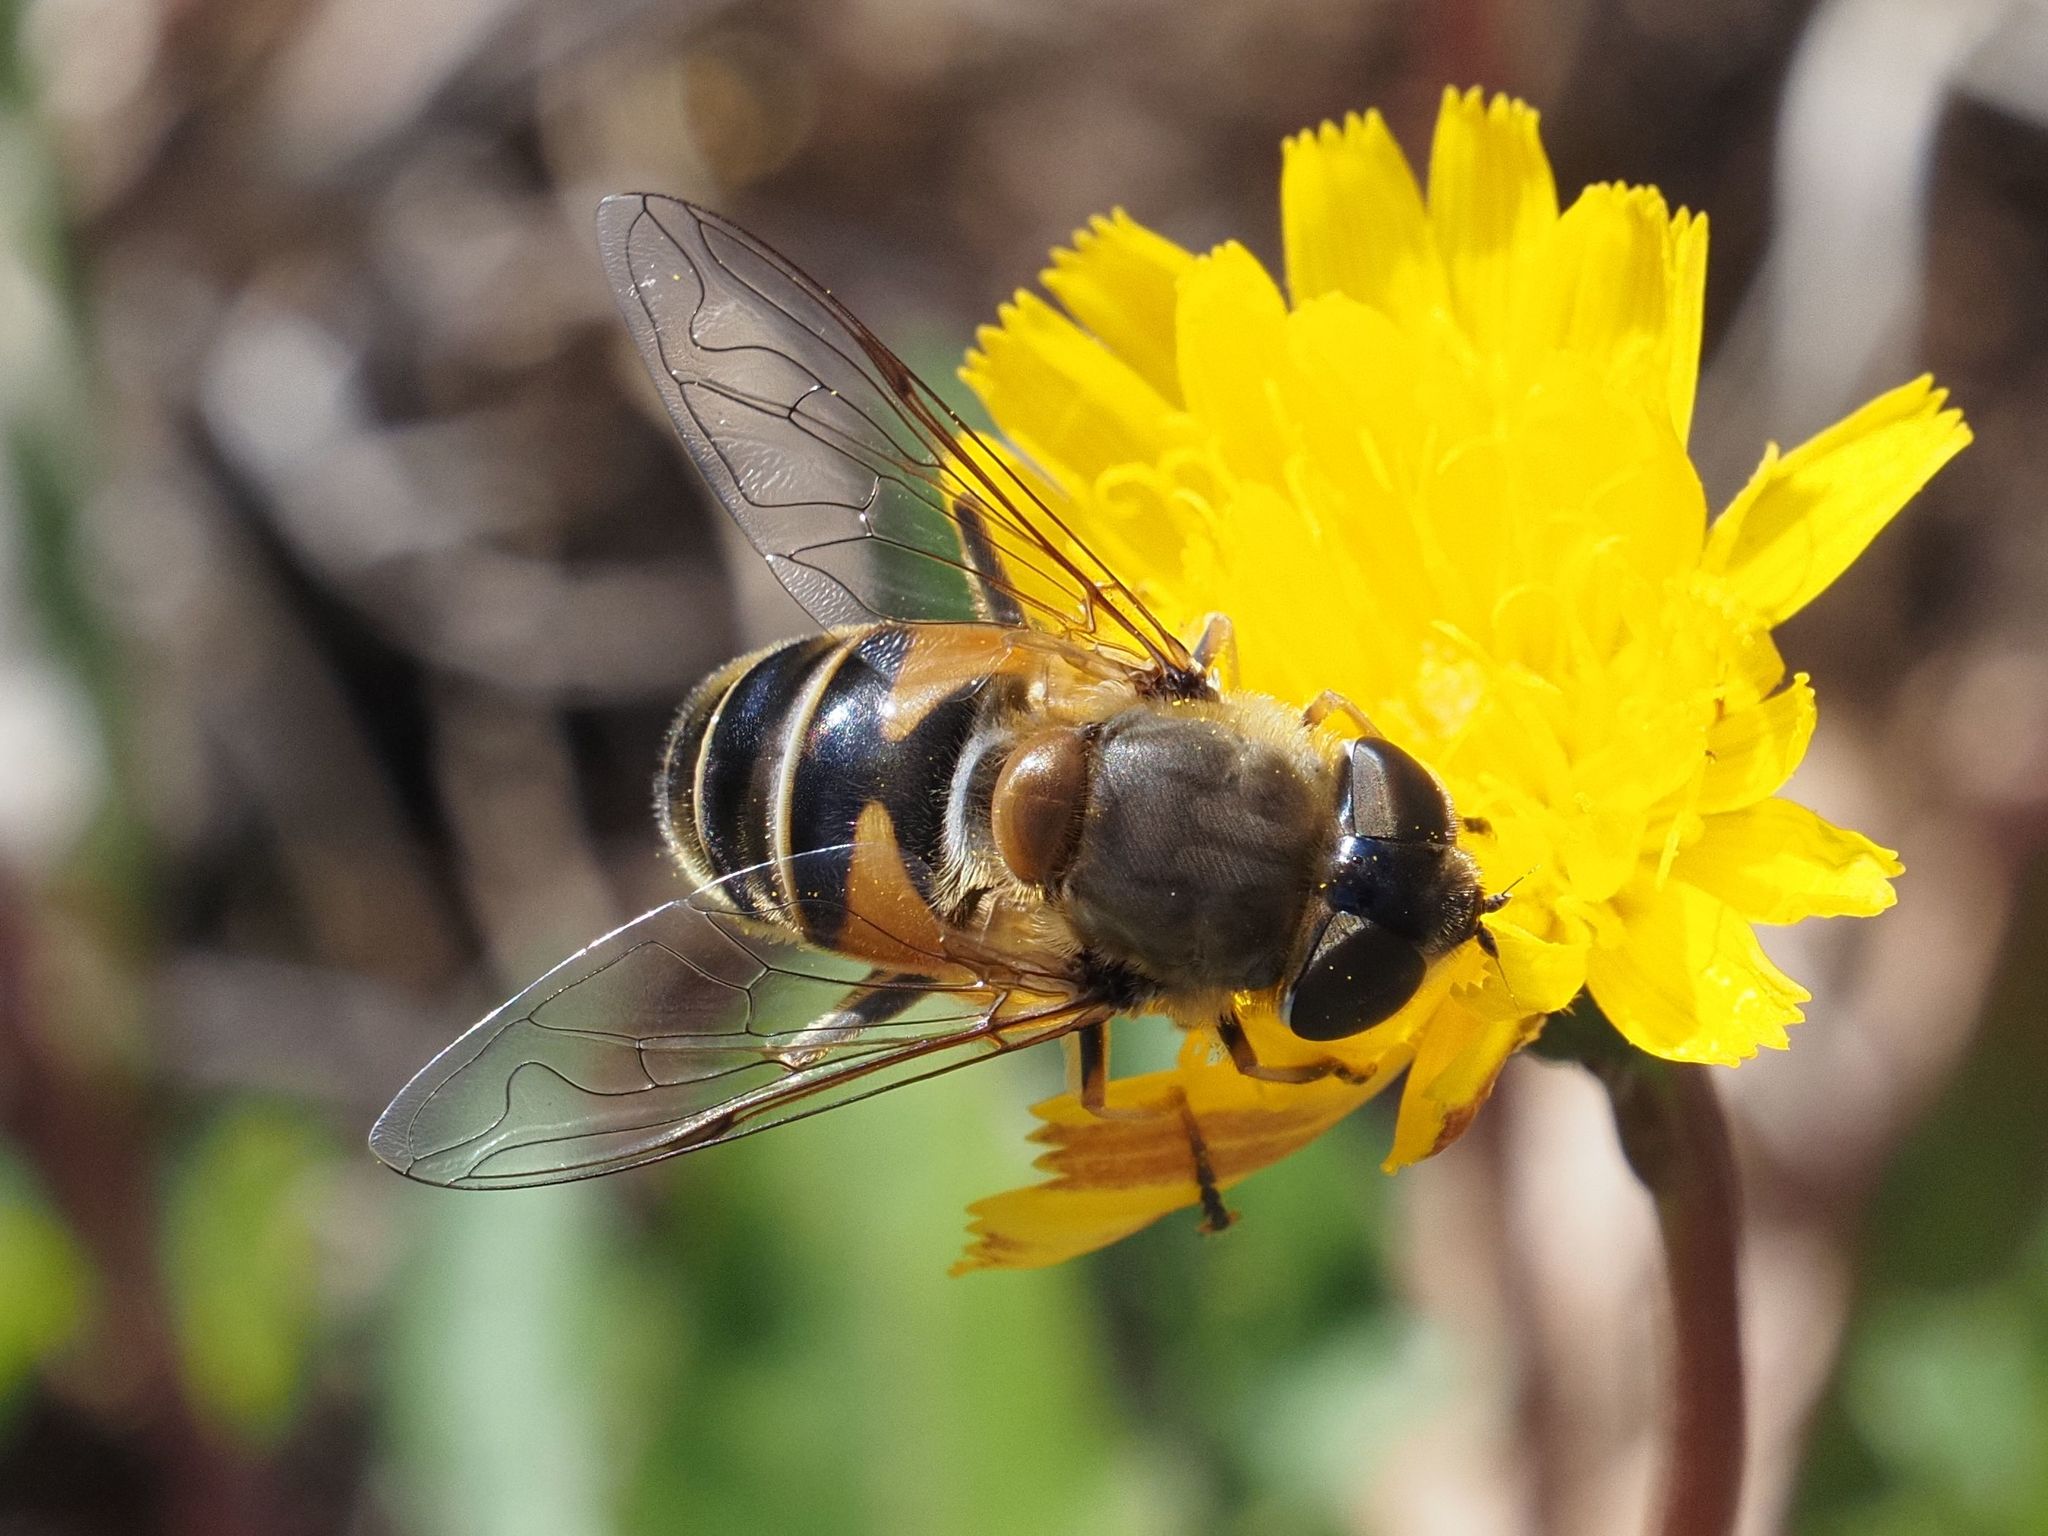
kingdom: Animalia
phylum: Arthropoda
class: Insecta
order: Diptera
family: Syrphidae
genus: Eristalis
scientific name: Eristalis pertinax
